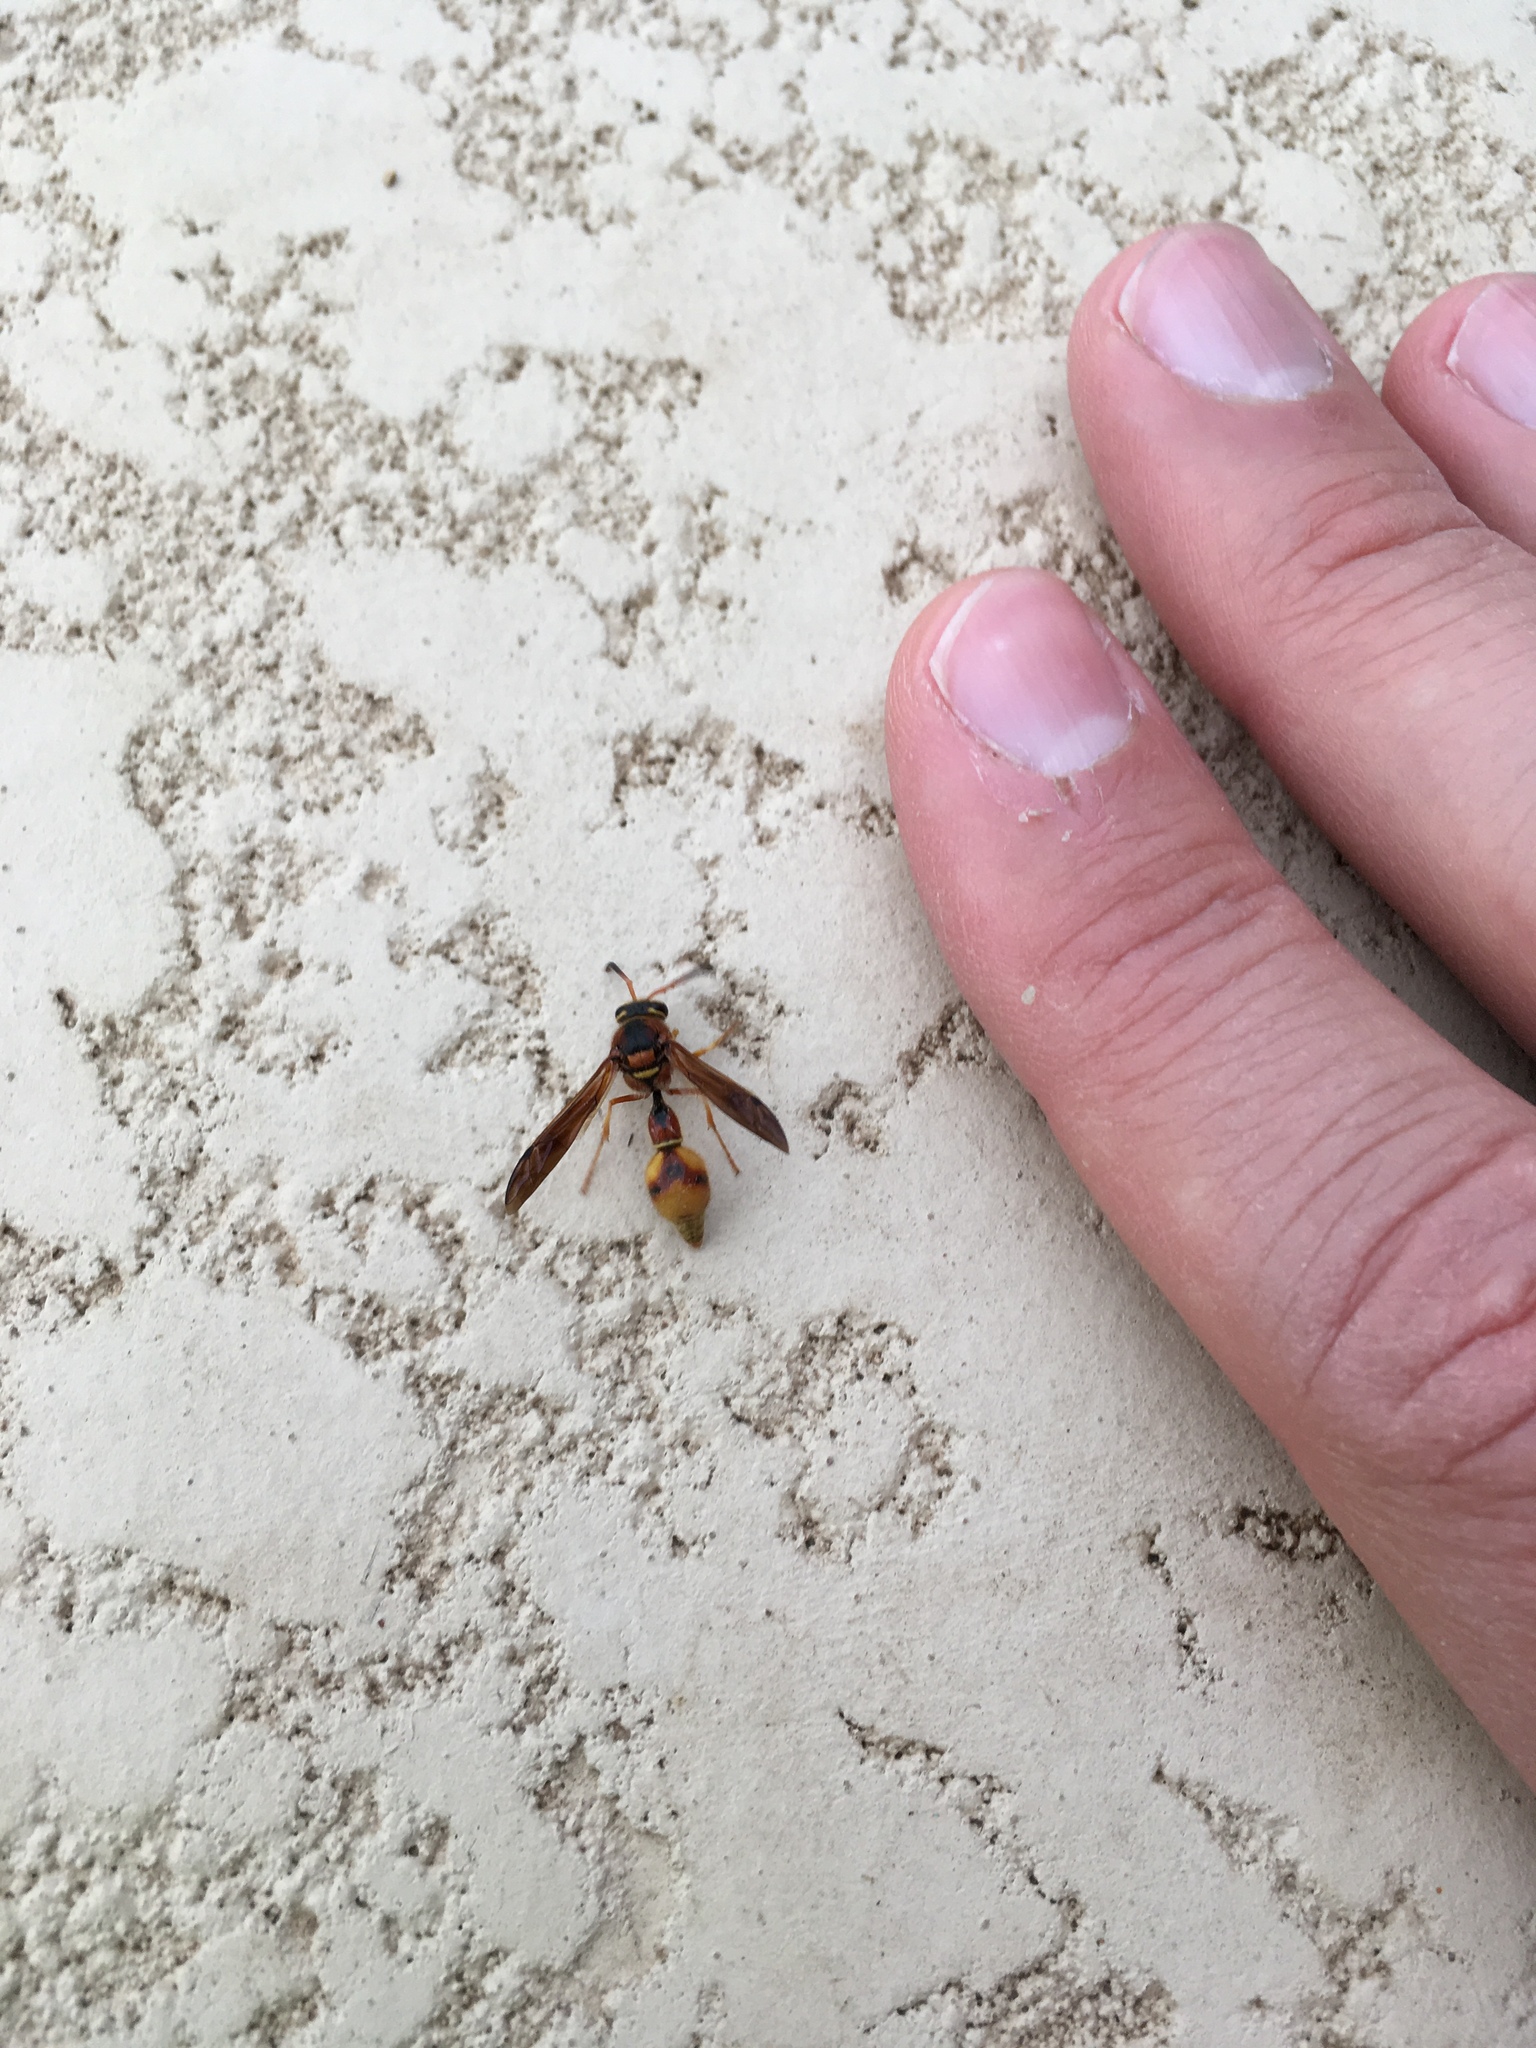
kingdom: Animalia
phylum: Arthropoda
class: Insecta
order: Hymenoptera
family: Vespidae
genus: Eumenes
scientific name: Eumenes bollii
